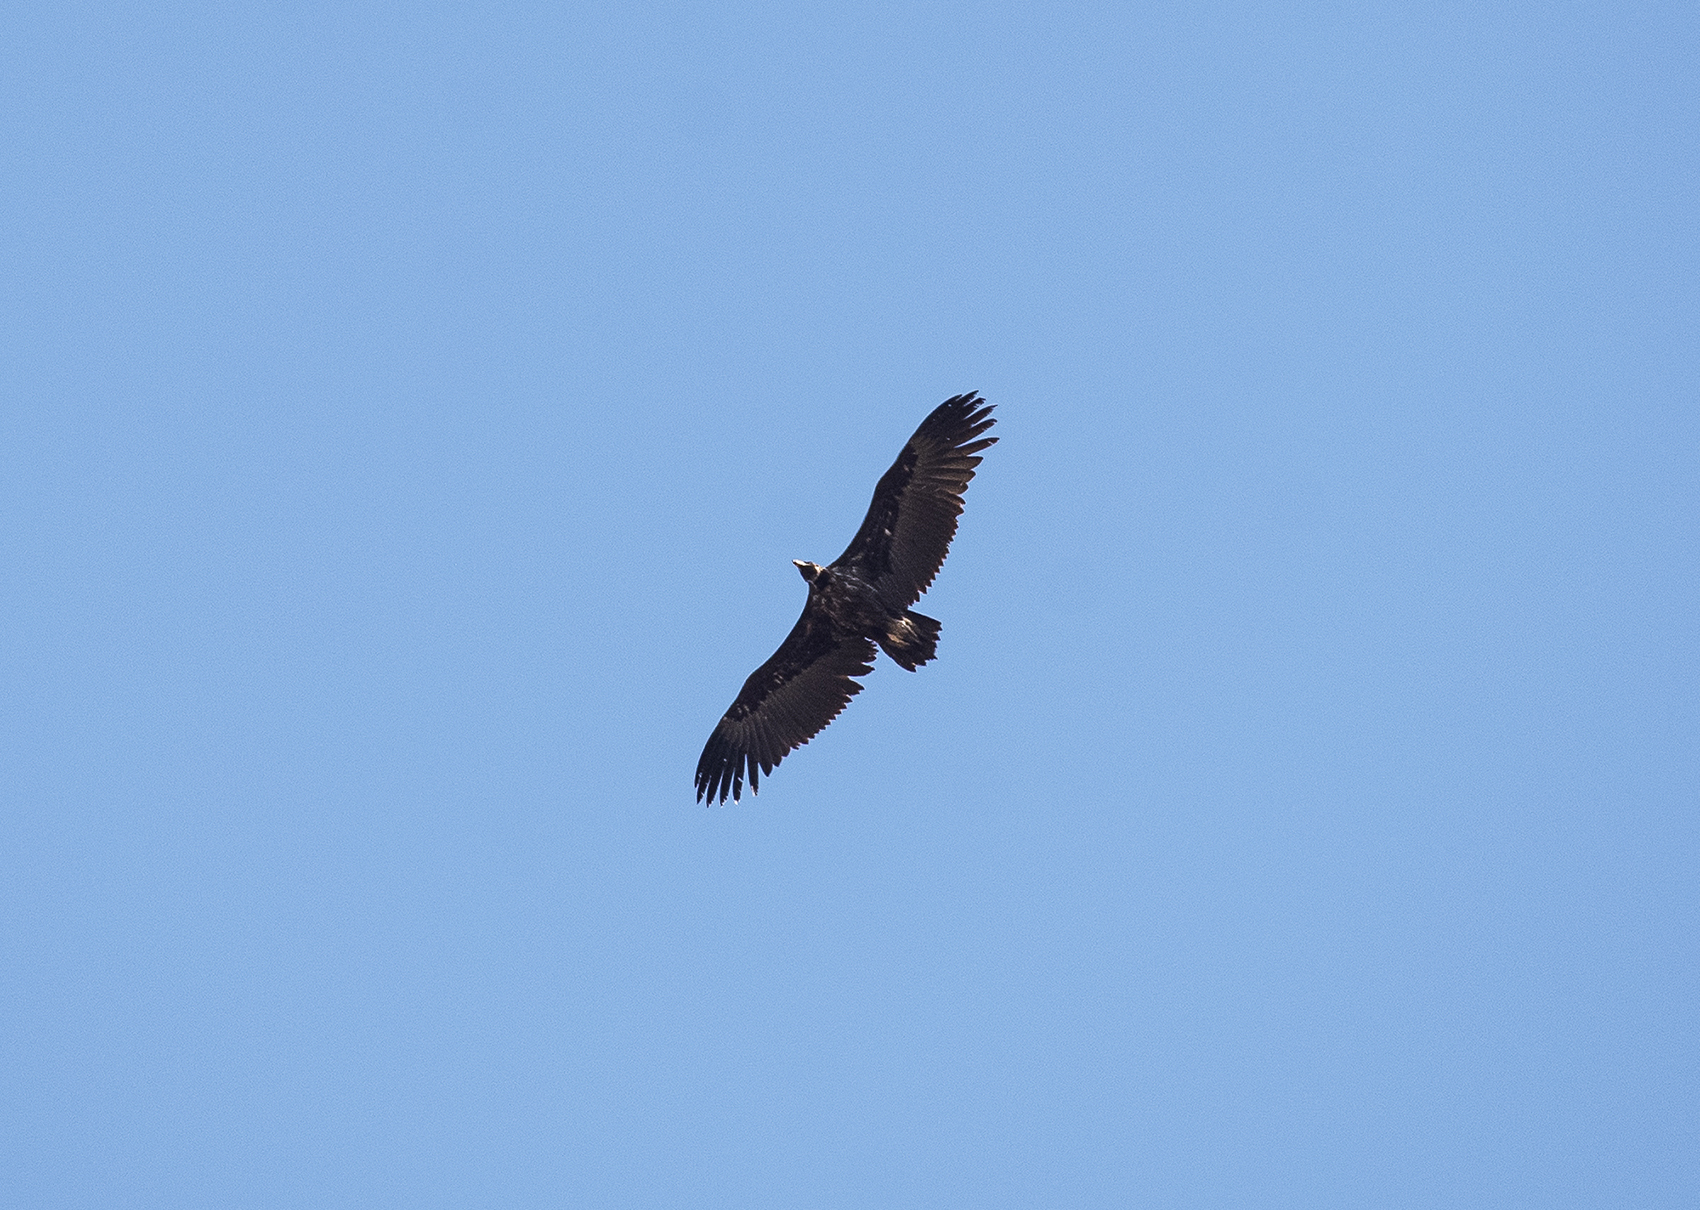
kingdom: Animalia
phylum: Chordata
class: Aves
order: Accipitriformes
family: Accipitridae
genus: Aegypius
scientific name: Aegypius monachus
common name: Cinereous vulture
